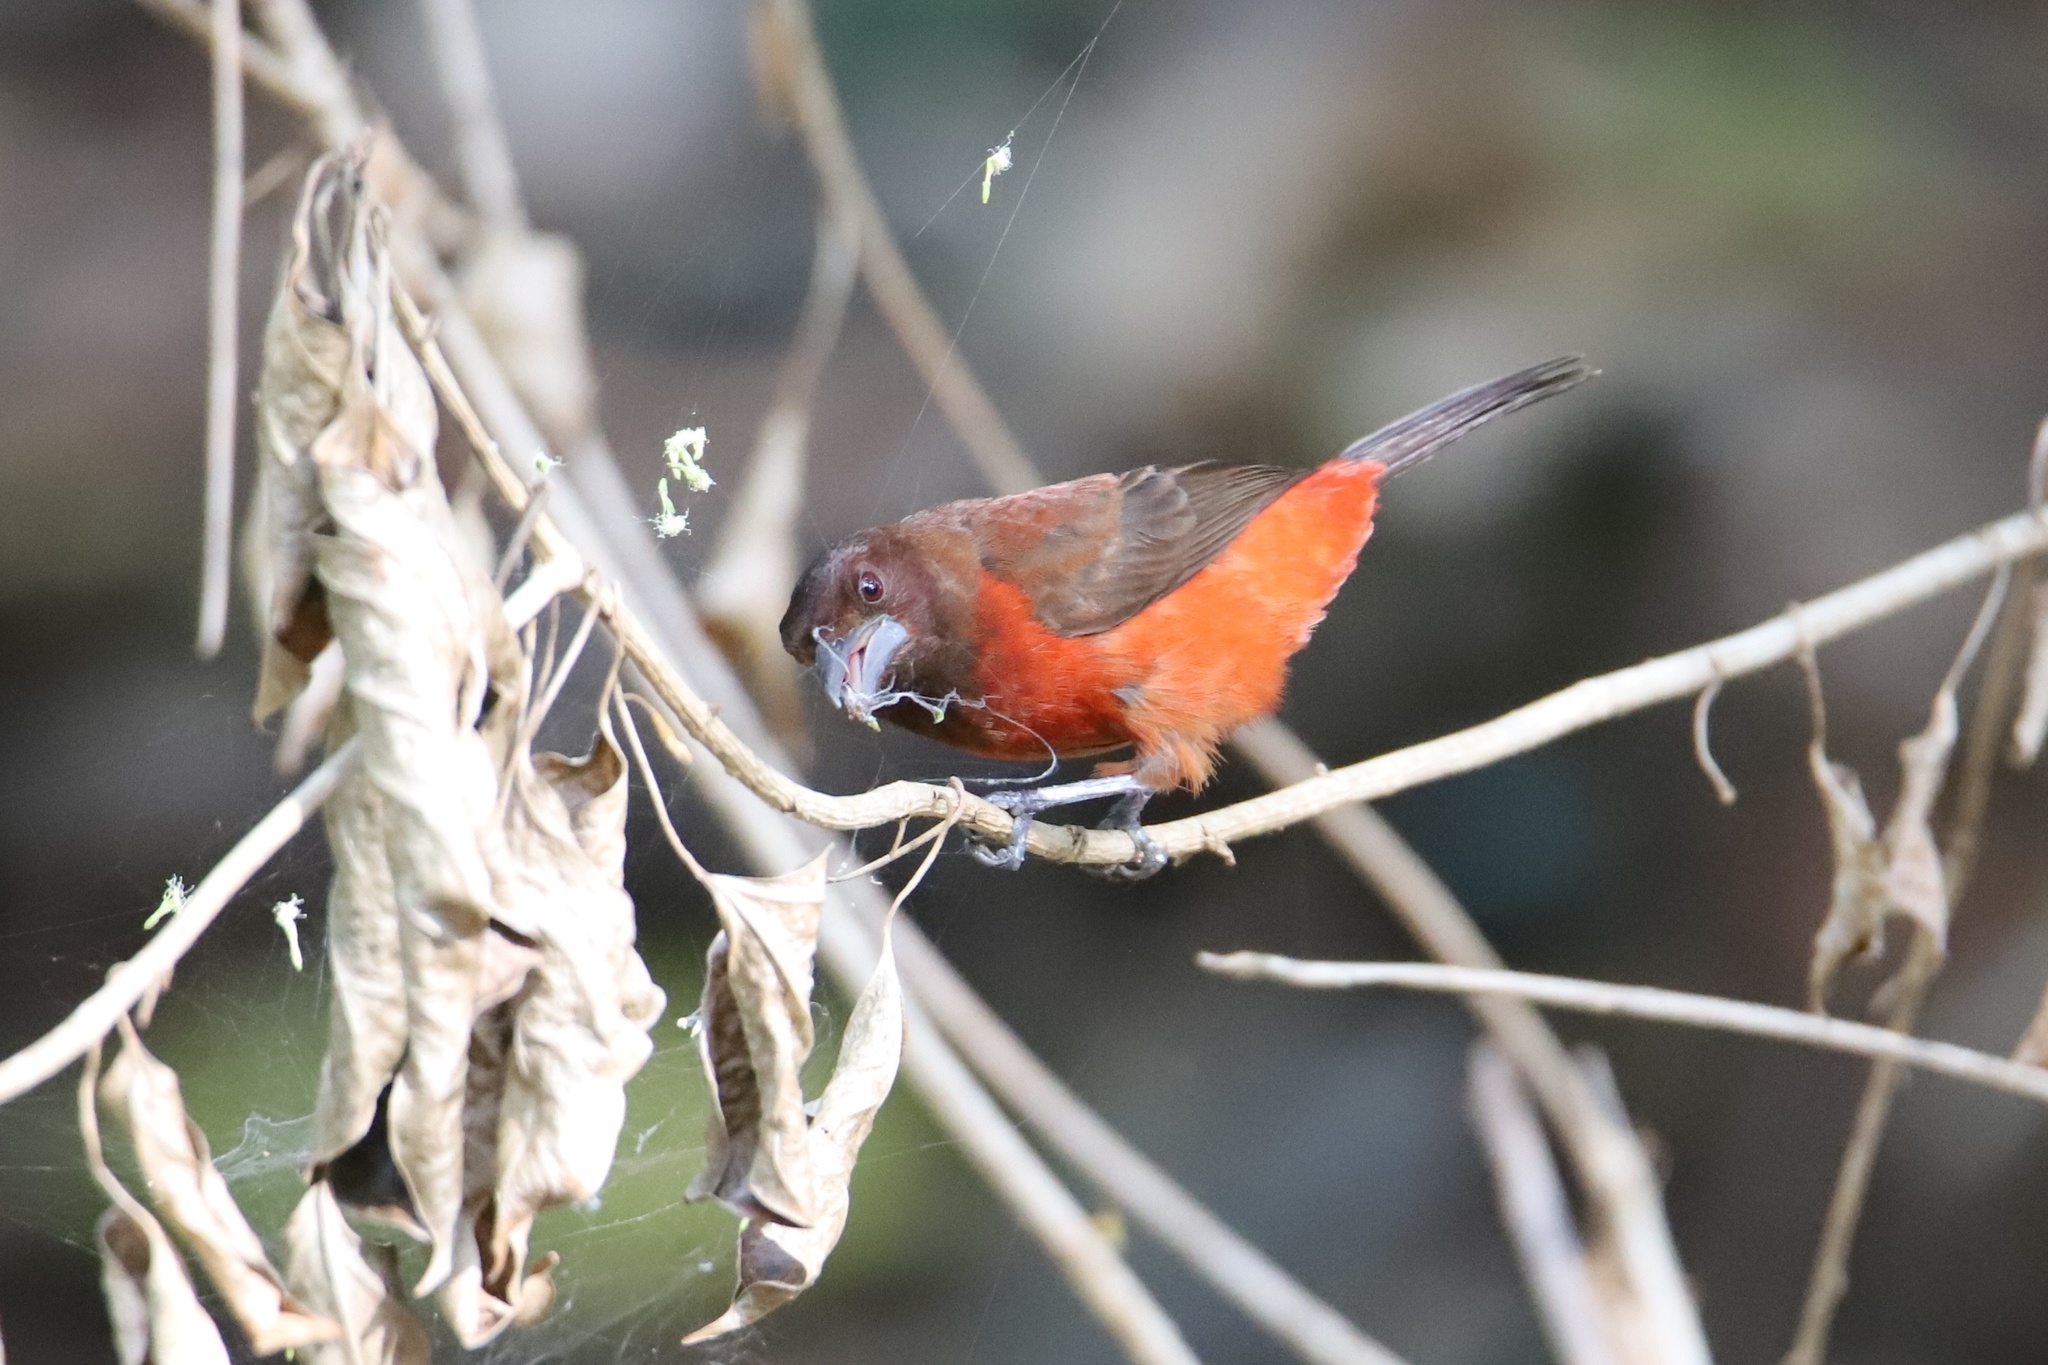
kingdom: Animalia
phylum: Chordata
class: Aves
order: Passeriformes
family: Thraupidae
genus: Ramphocelus
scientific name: Ramphocelus dimidiatus
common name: Crimson-backed tanager
